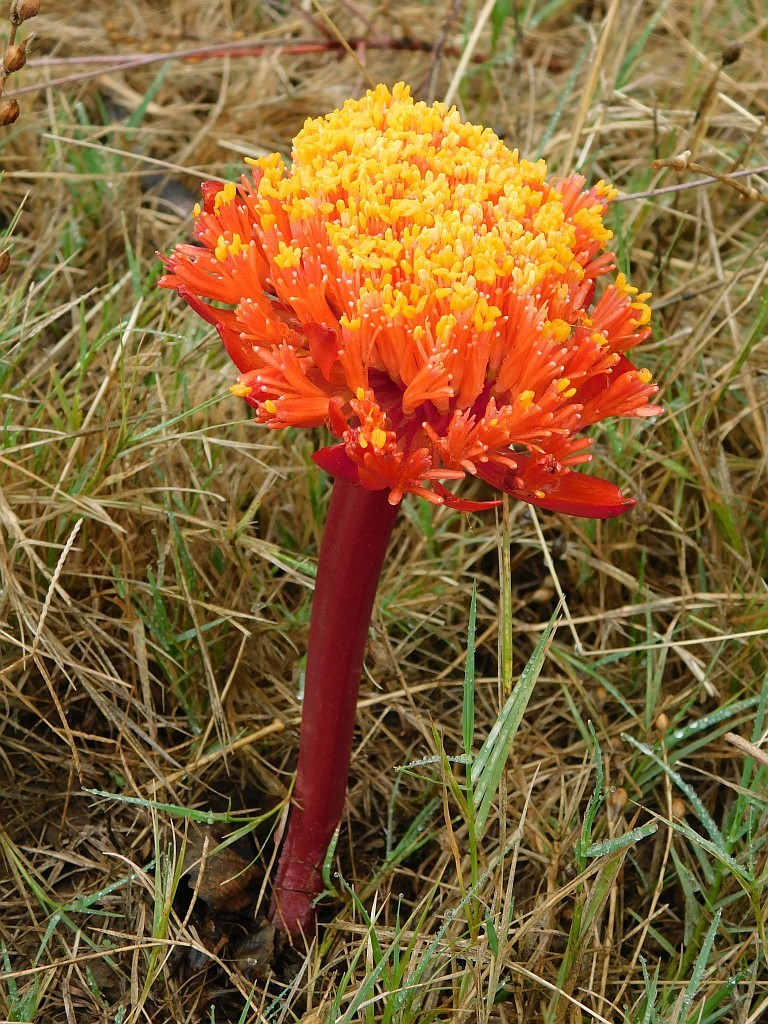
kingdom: Plantae
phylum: Tracheophyta
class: Liliopsida
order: Asparagales
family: Amaryllidaceae
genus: Haemanthus
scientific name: Haemanthus sanguineus
